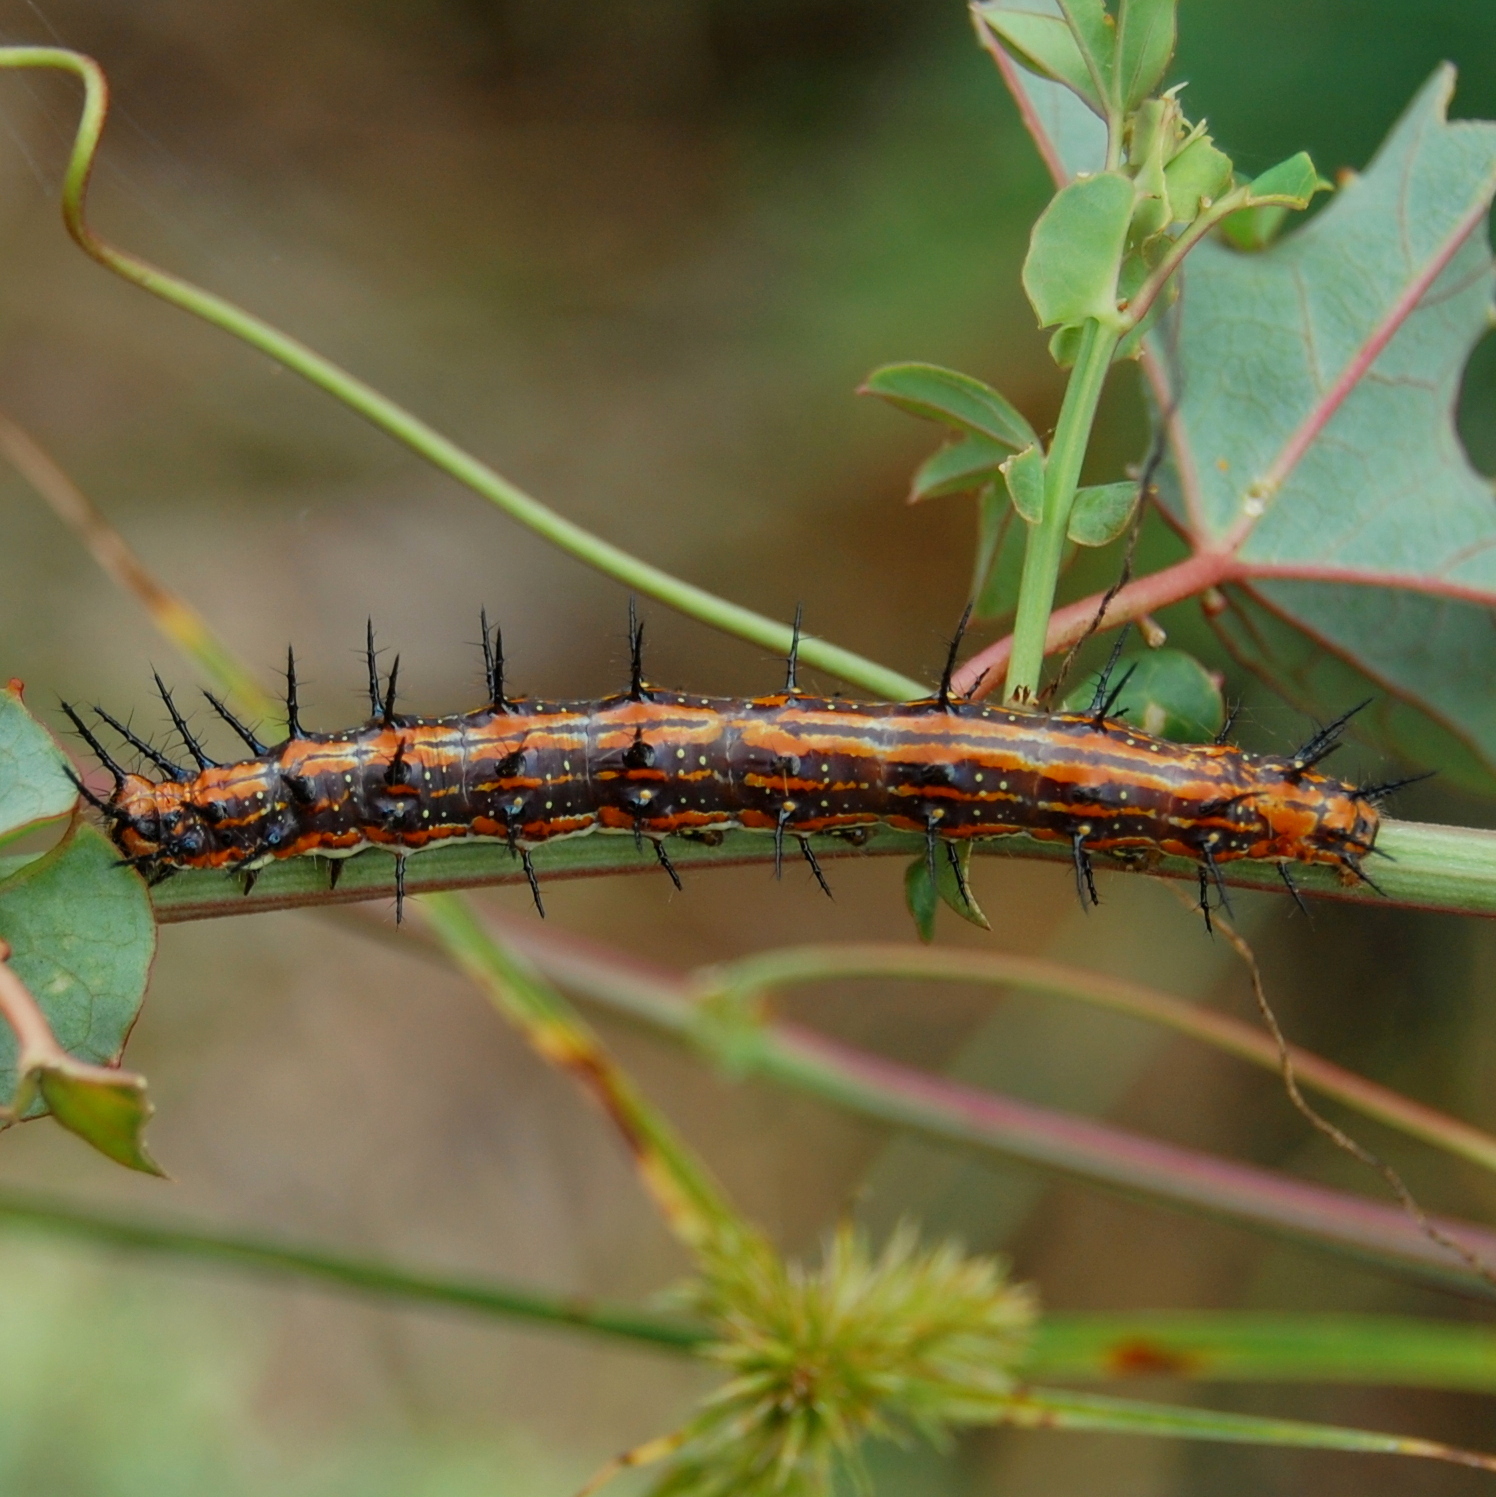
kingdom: Animalia
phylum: Arthropoda
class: Insecta
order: Lepidoptera
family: Nymphalidae
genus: Dione
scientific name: Dione vanillae
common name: Gulf fritillary
